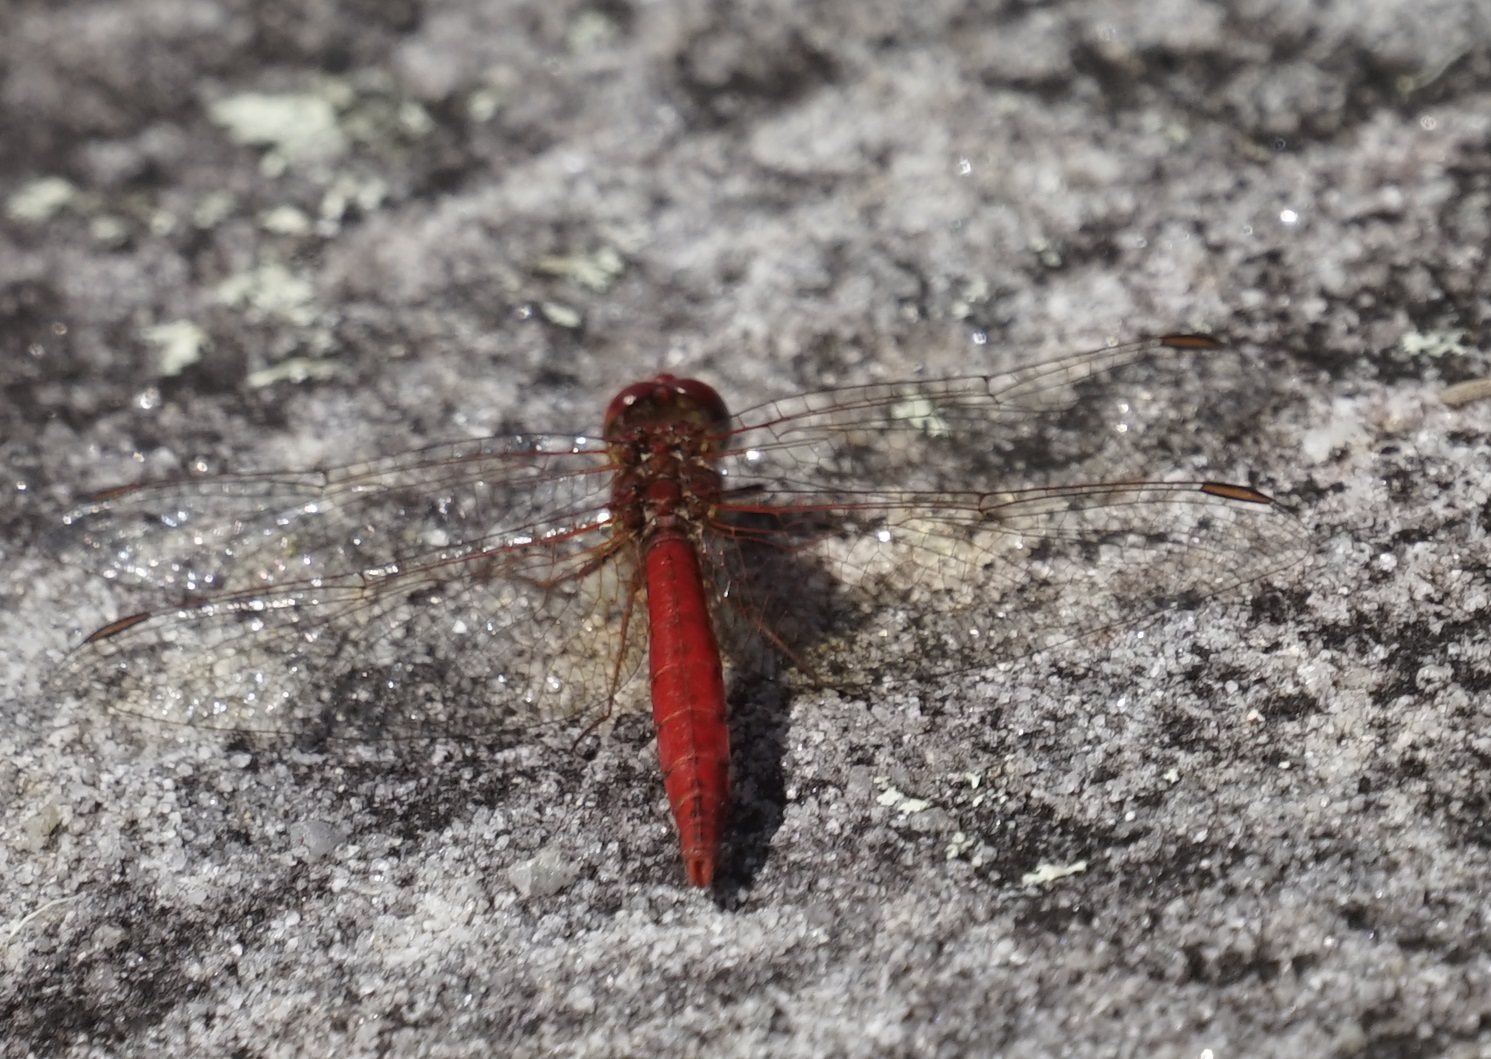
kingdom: Animalia
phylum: Arthropoda
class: Insecta
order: Odonata
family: Libellulidae
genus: Diplacodes
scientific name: Diplacodes haematodes
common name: Scarlet percher
